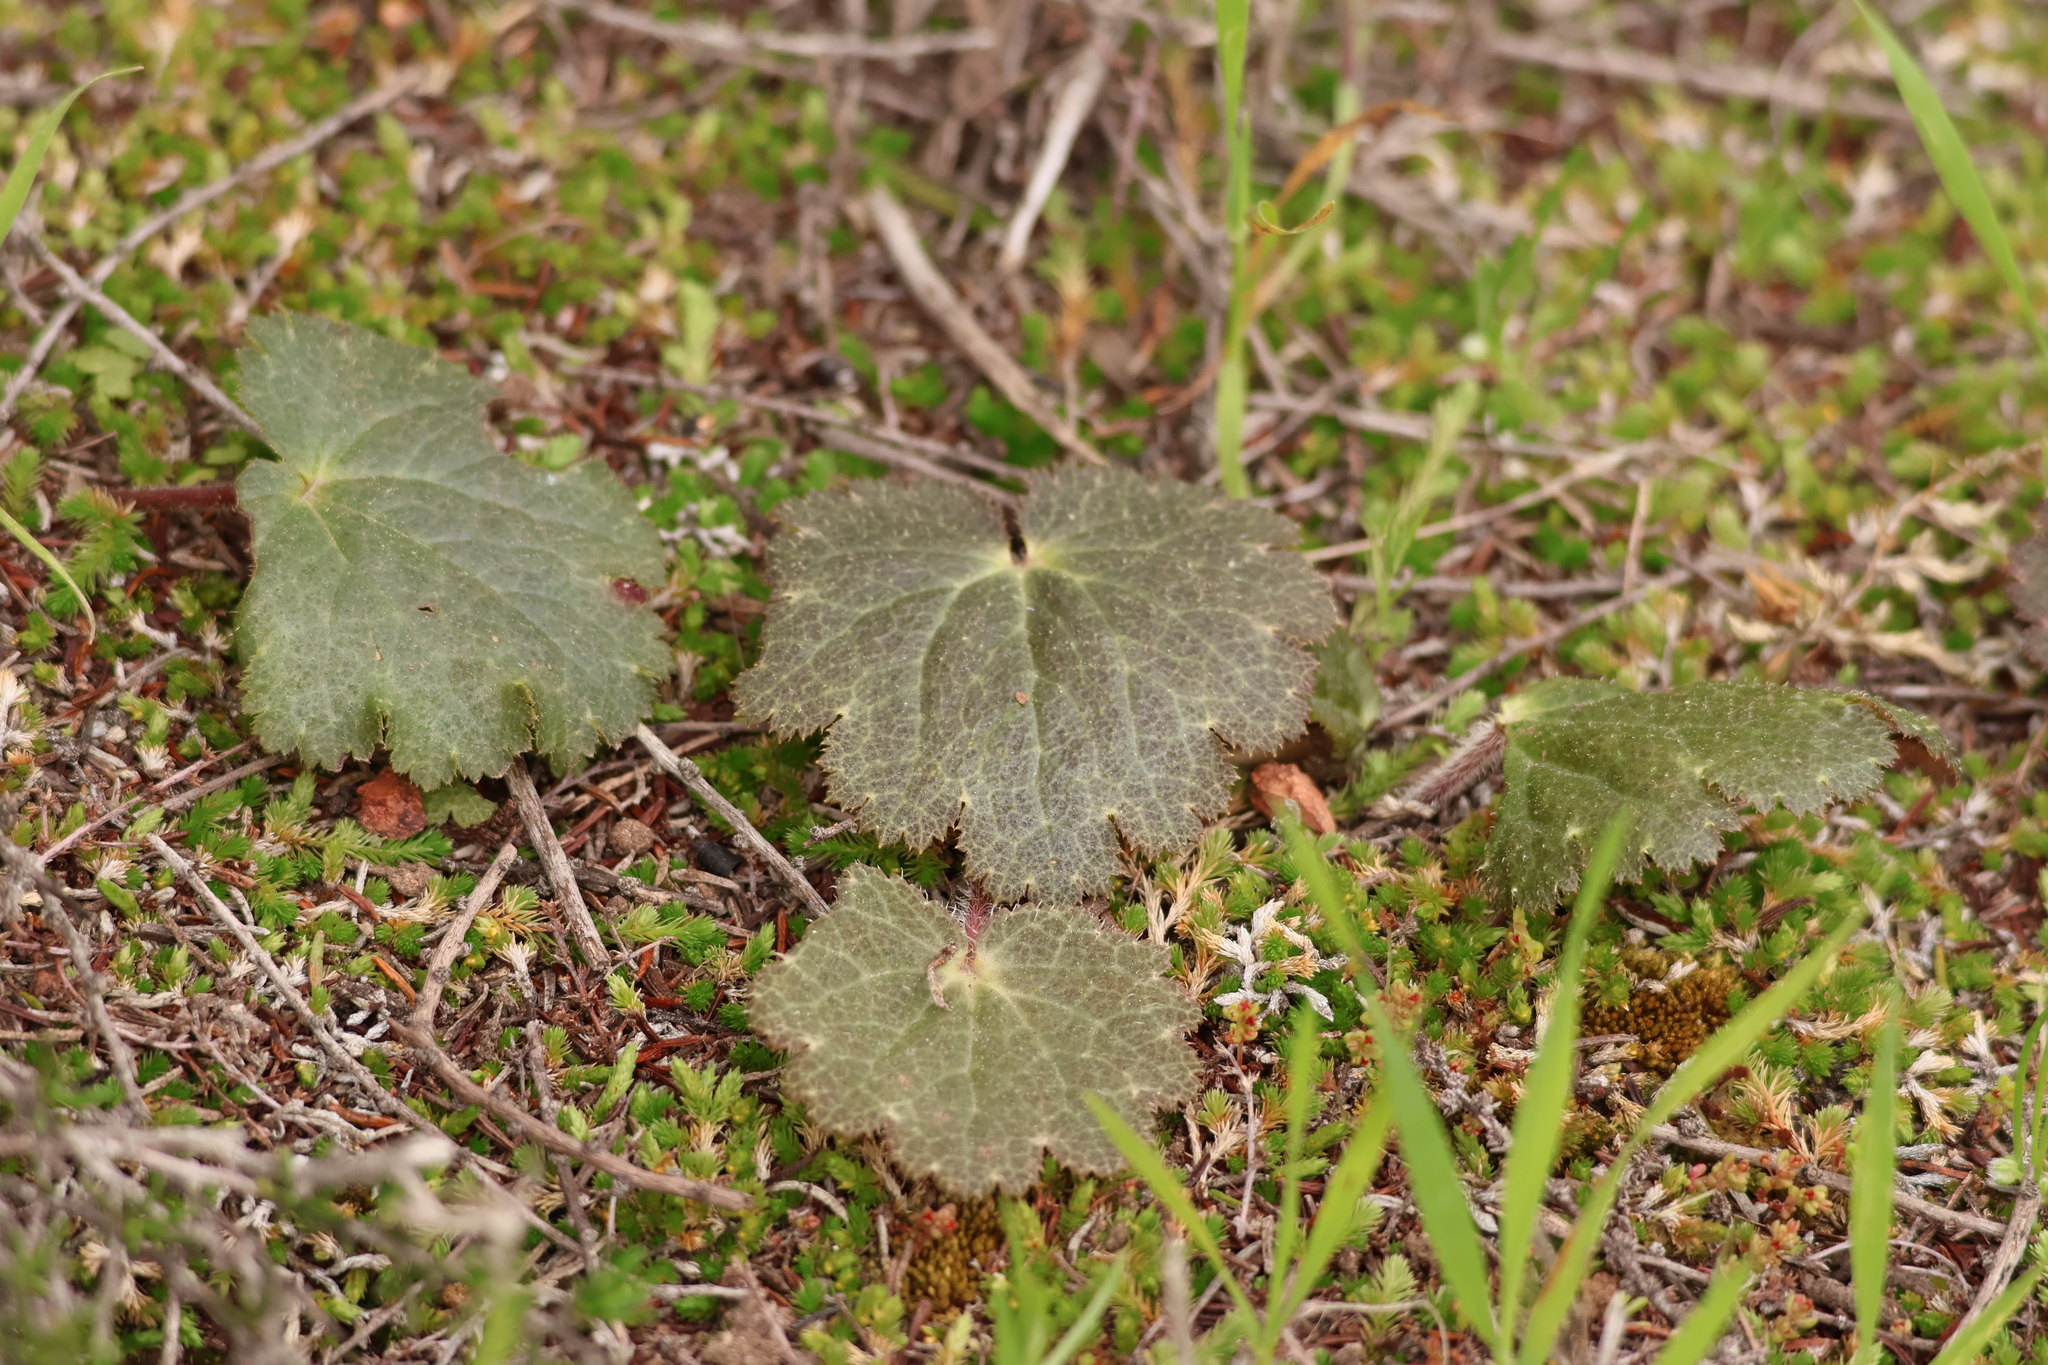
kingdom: Plantae
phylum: Tracheophyta
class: Magnoliopsida
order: Saxifragales
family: Saxifragaceae
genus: Jepsonia
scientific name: Jepsonia parryi
